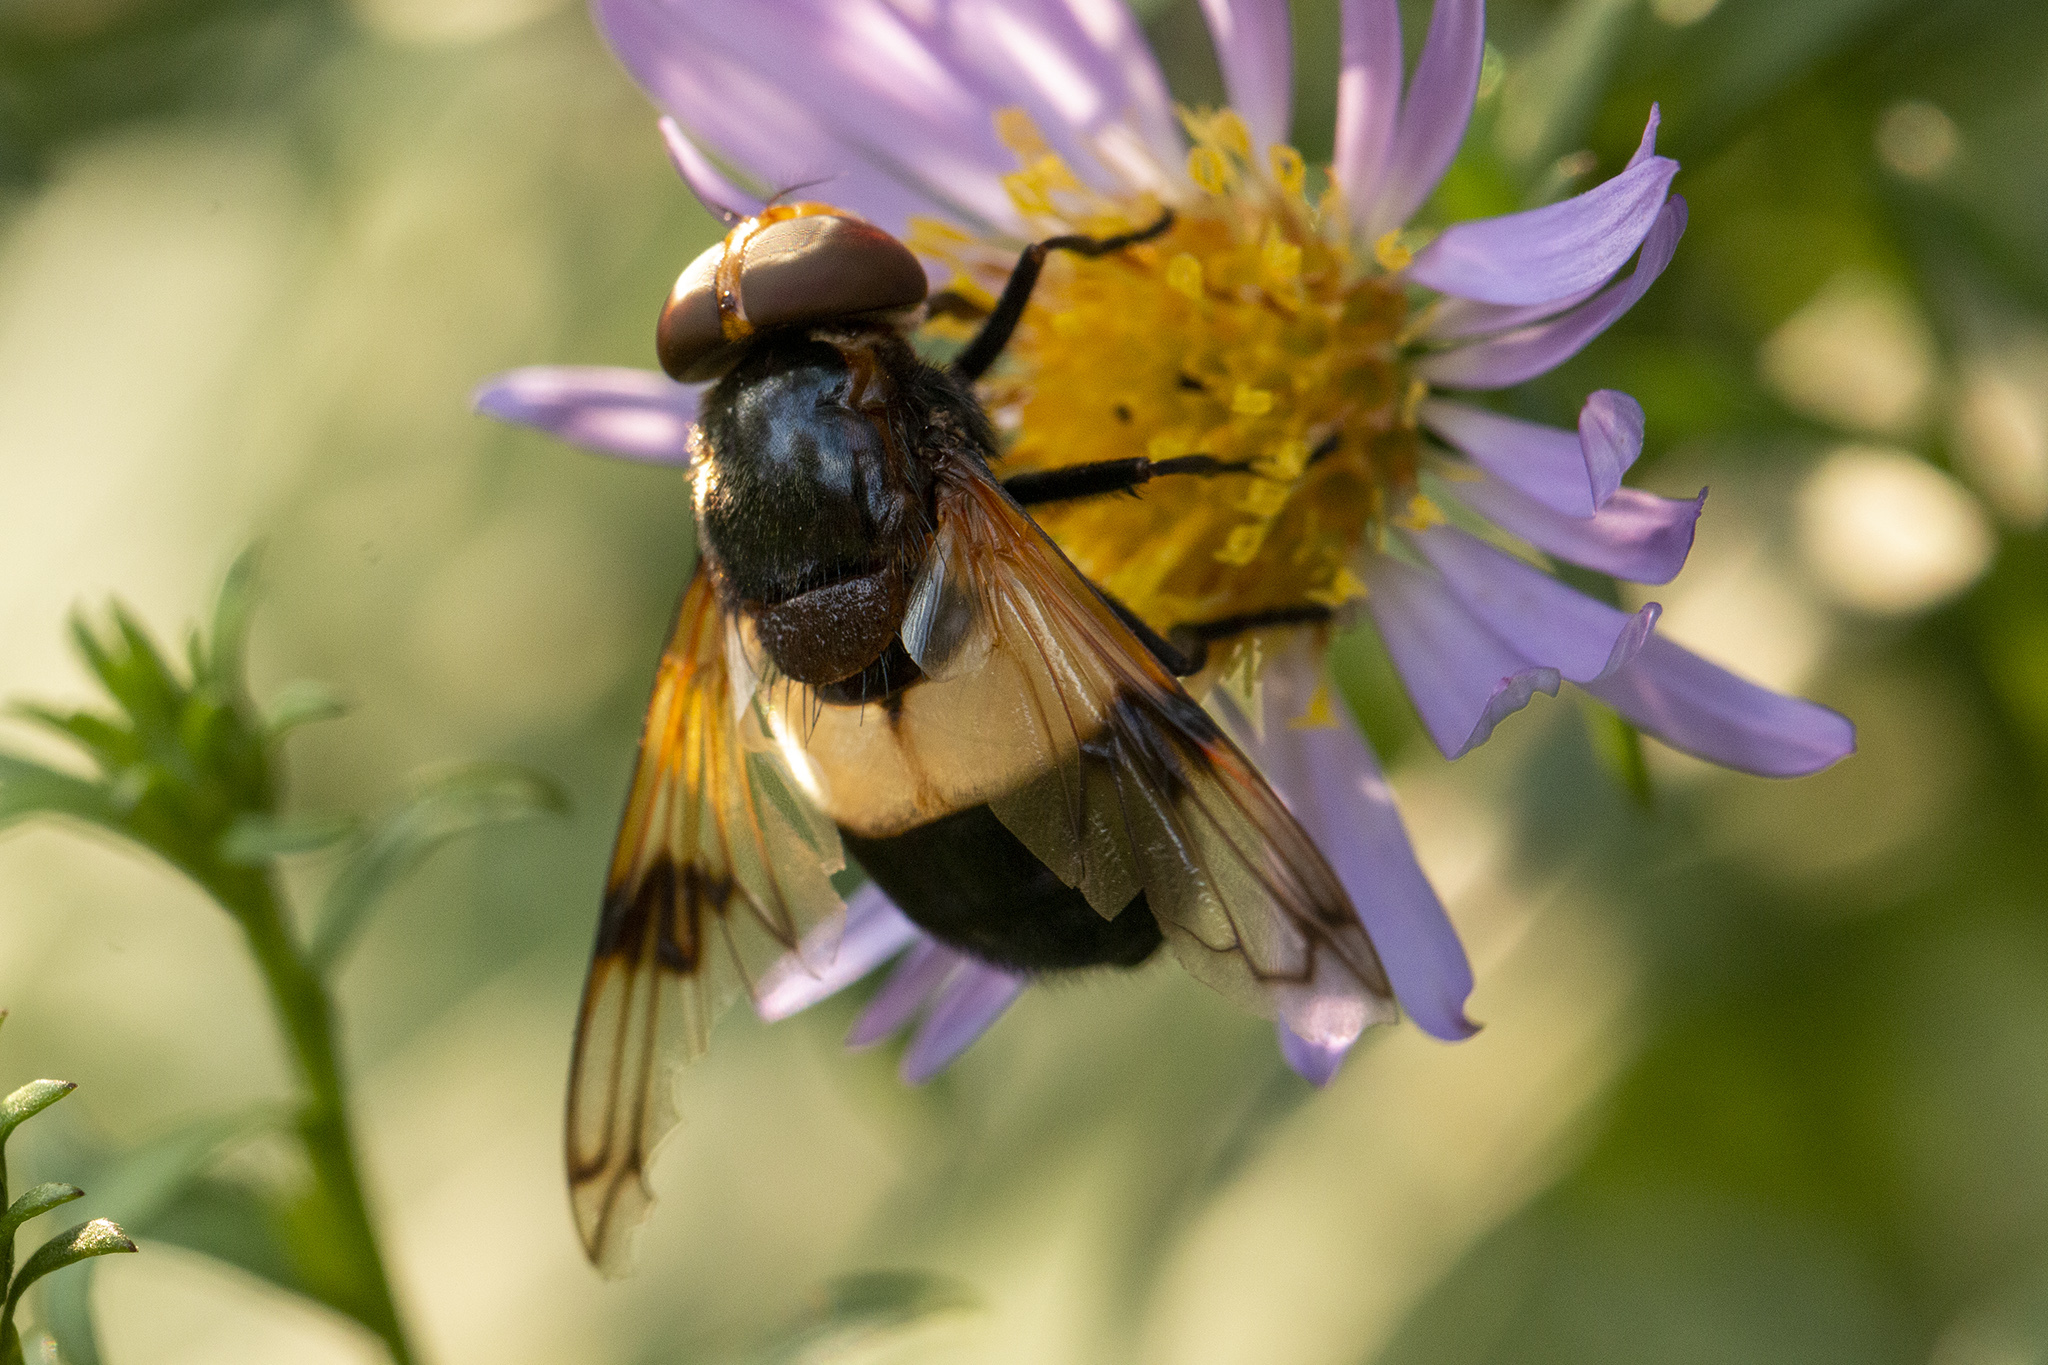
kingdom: Animalia
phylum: Arthropoda
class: Insecta
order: Diptera
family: Syrphidae
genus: Volucella
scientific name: Volucella pellucens
